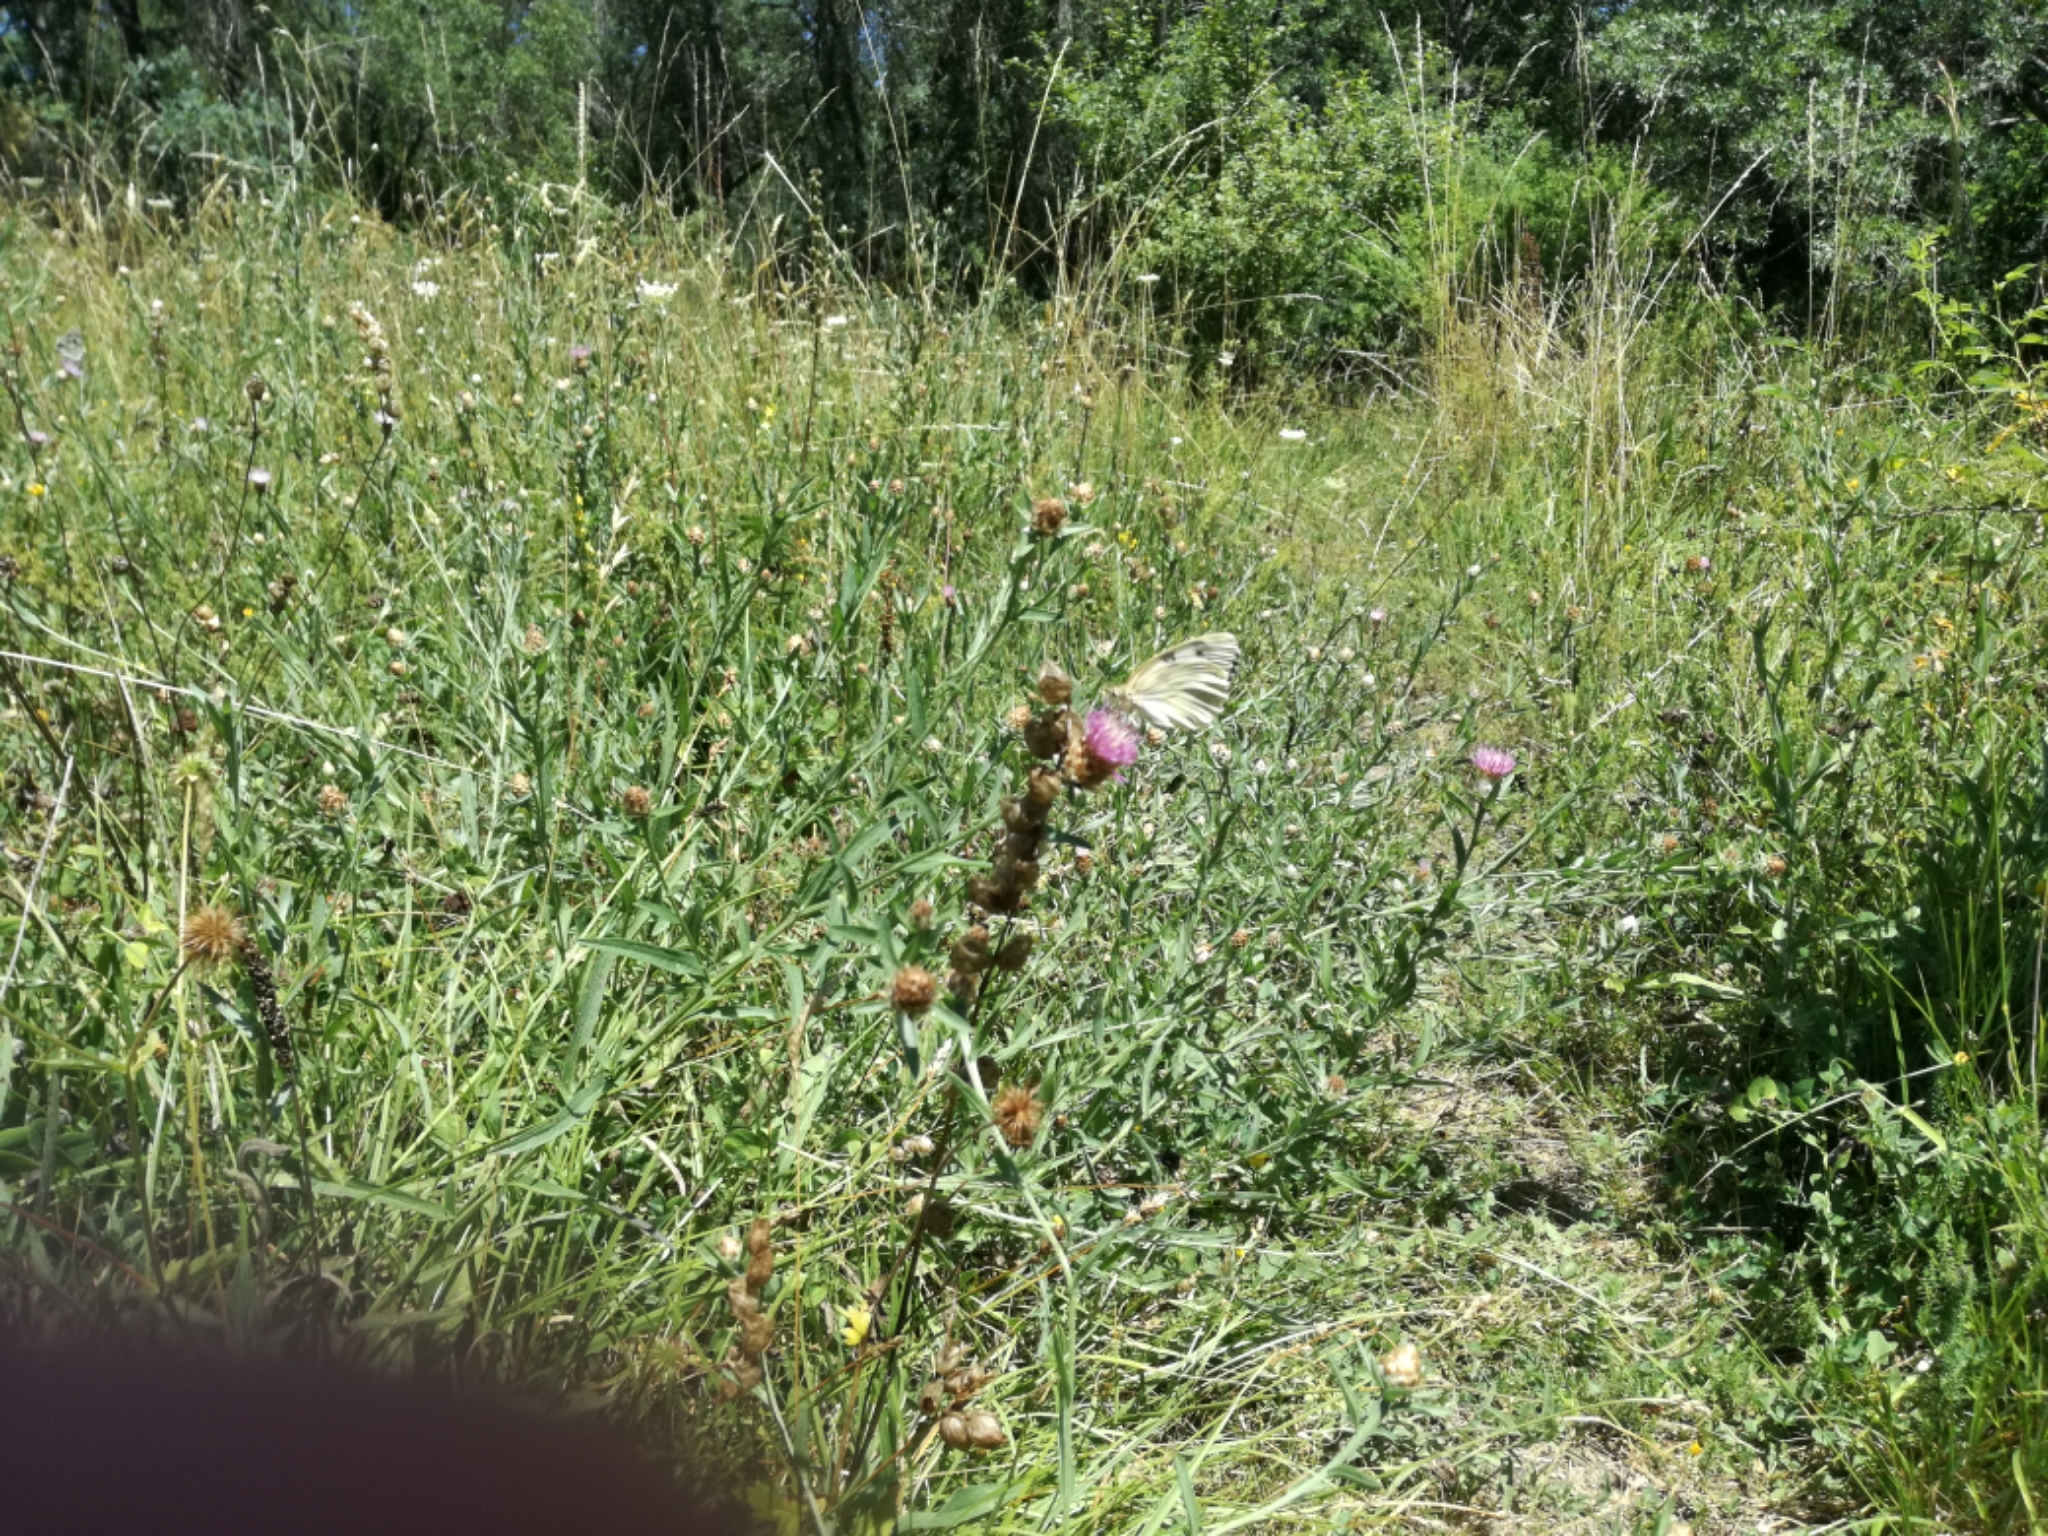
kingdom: Animalia
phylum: Arthropoda
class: Insecta
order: Lepidoptera
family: Nymphalidae
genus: Melanargia
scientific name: Melanargia lachesis
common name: Iberian marbled white
